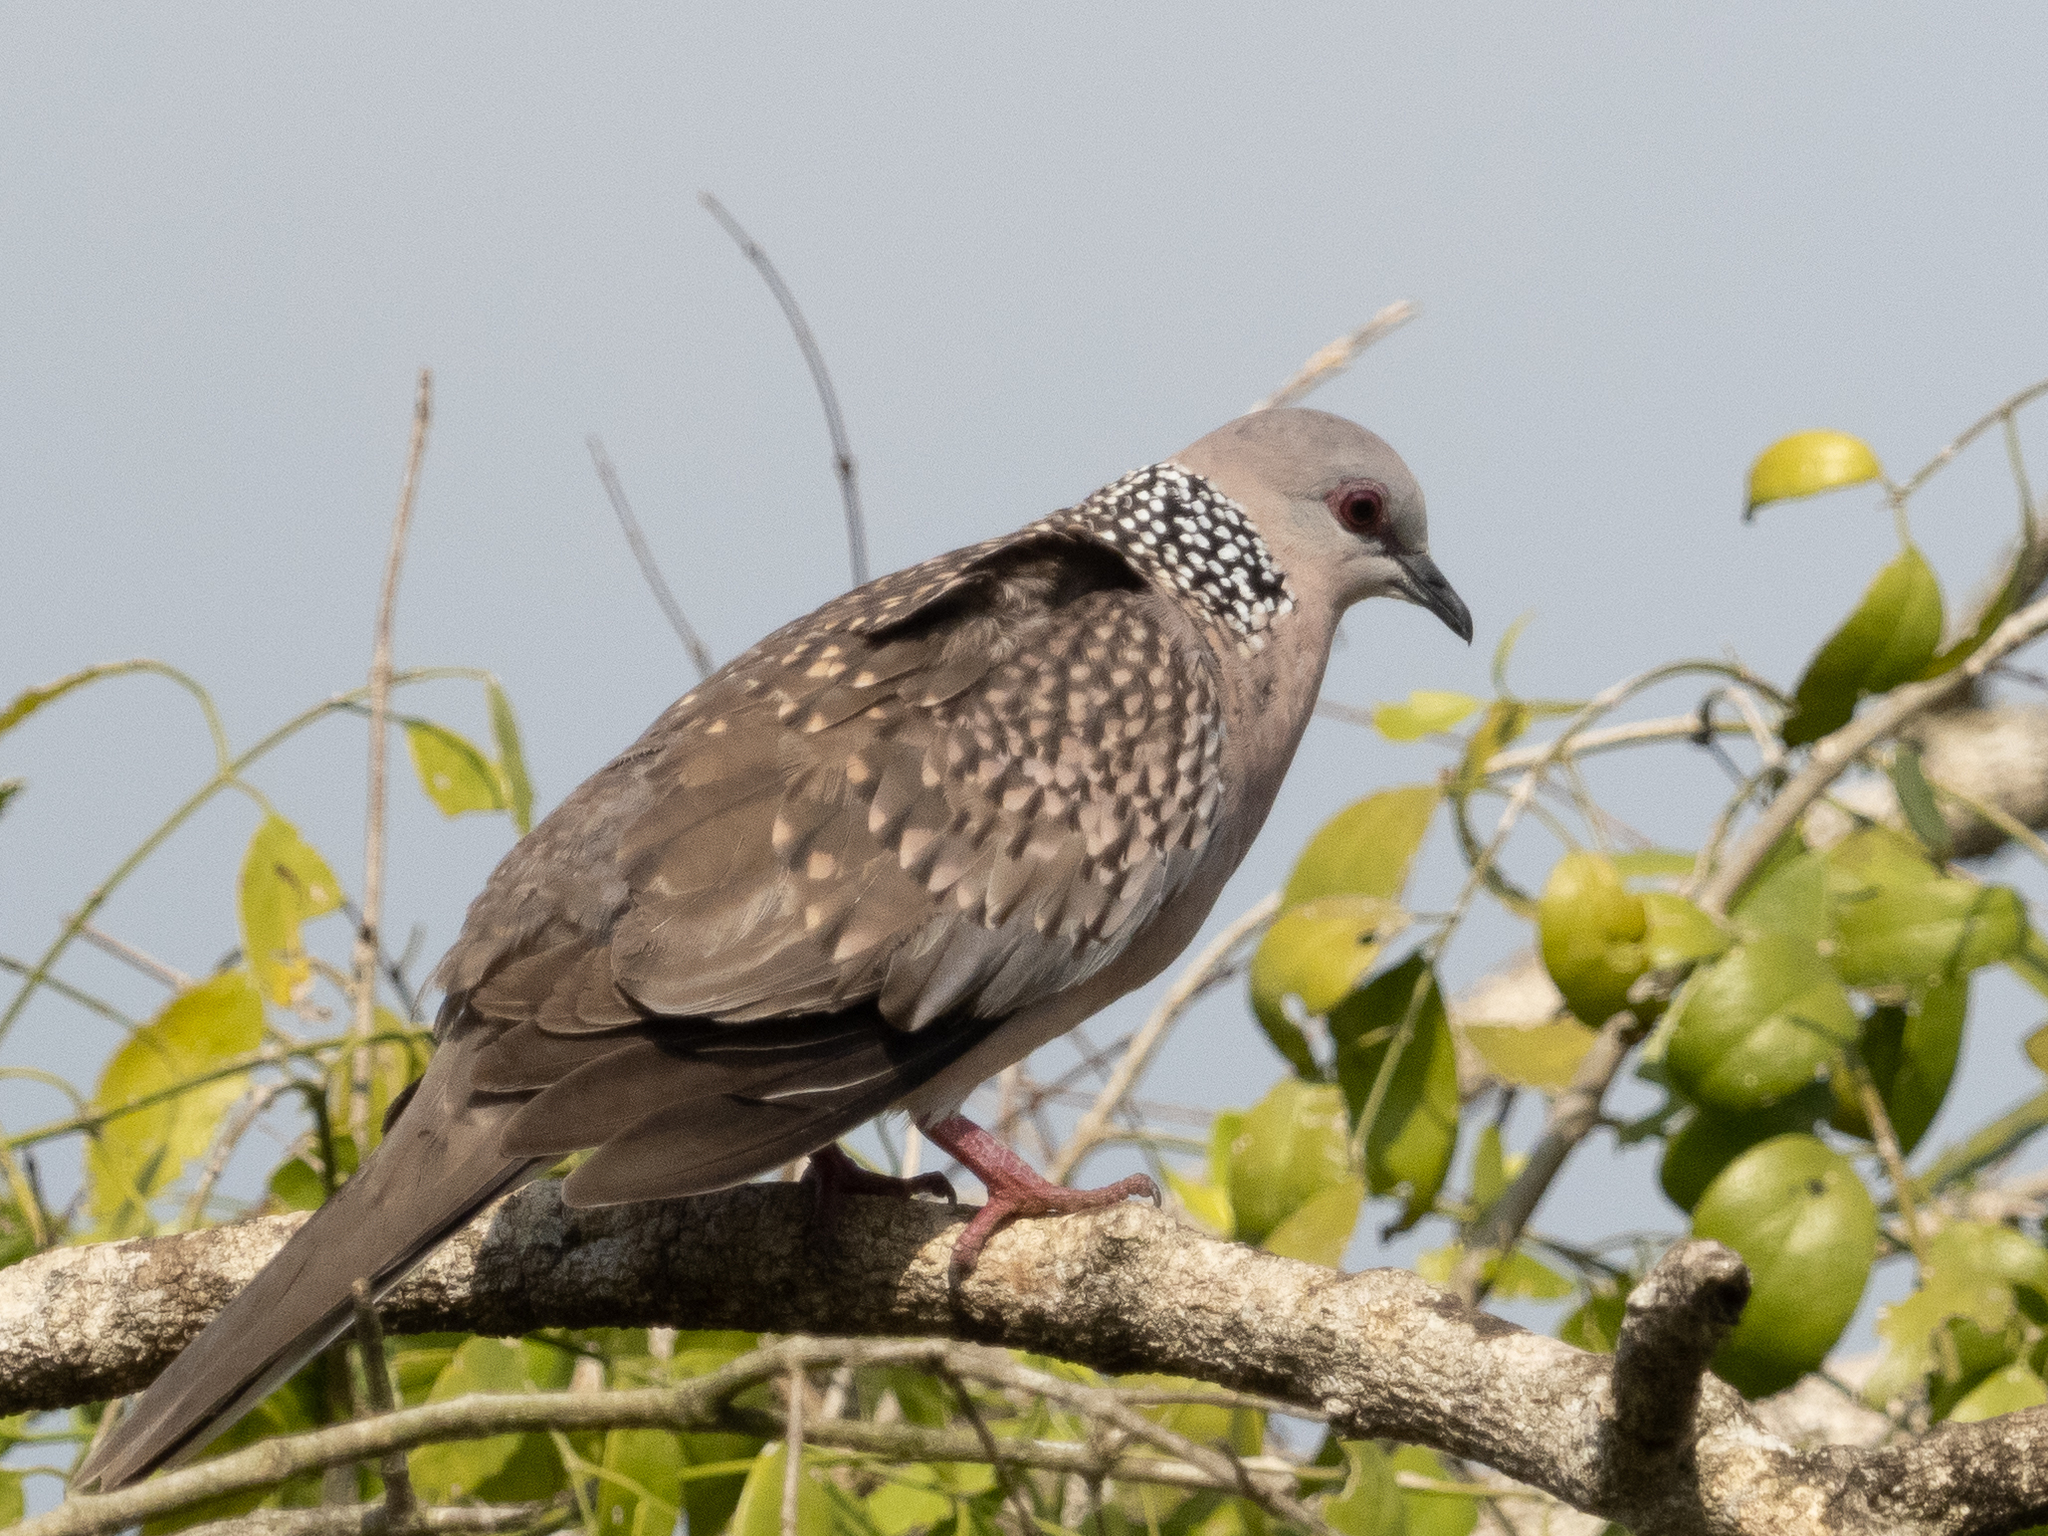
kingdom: Animalia
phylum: Chordata
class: Aves
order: Columbiformes
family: Columbidae
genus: Spilopelia
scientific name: Spilopelia chinensis
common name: Spotted dove
